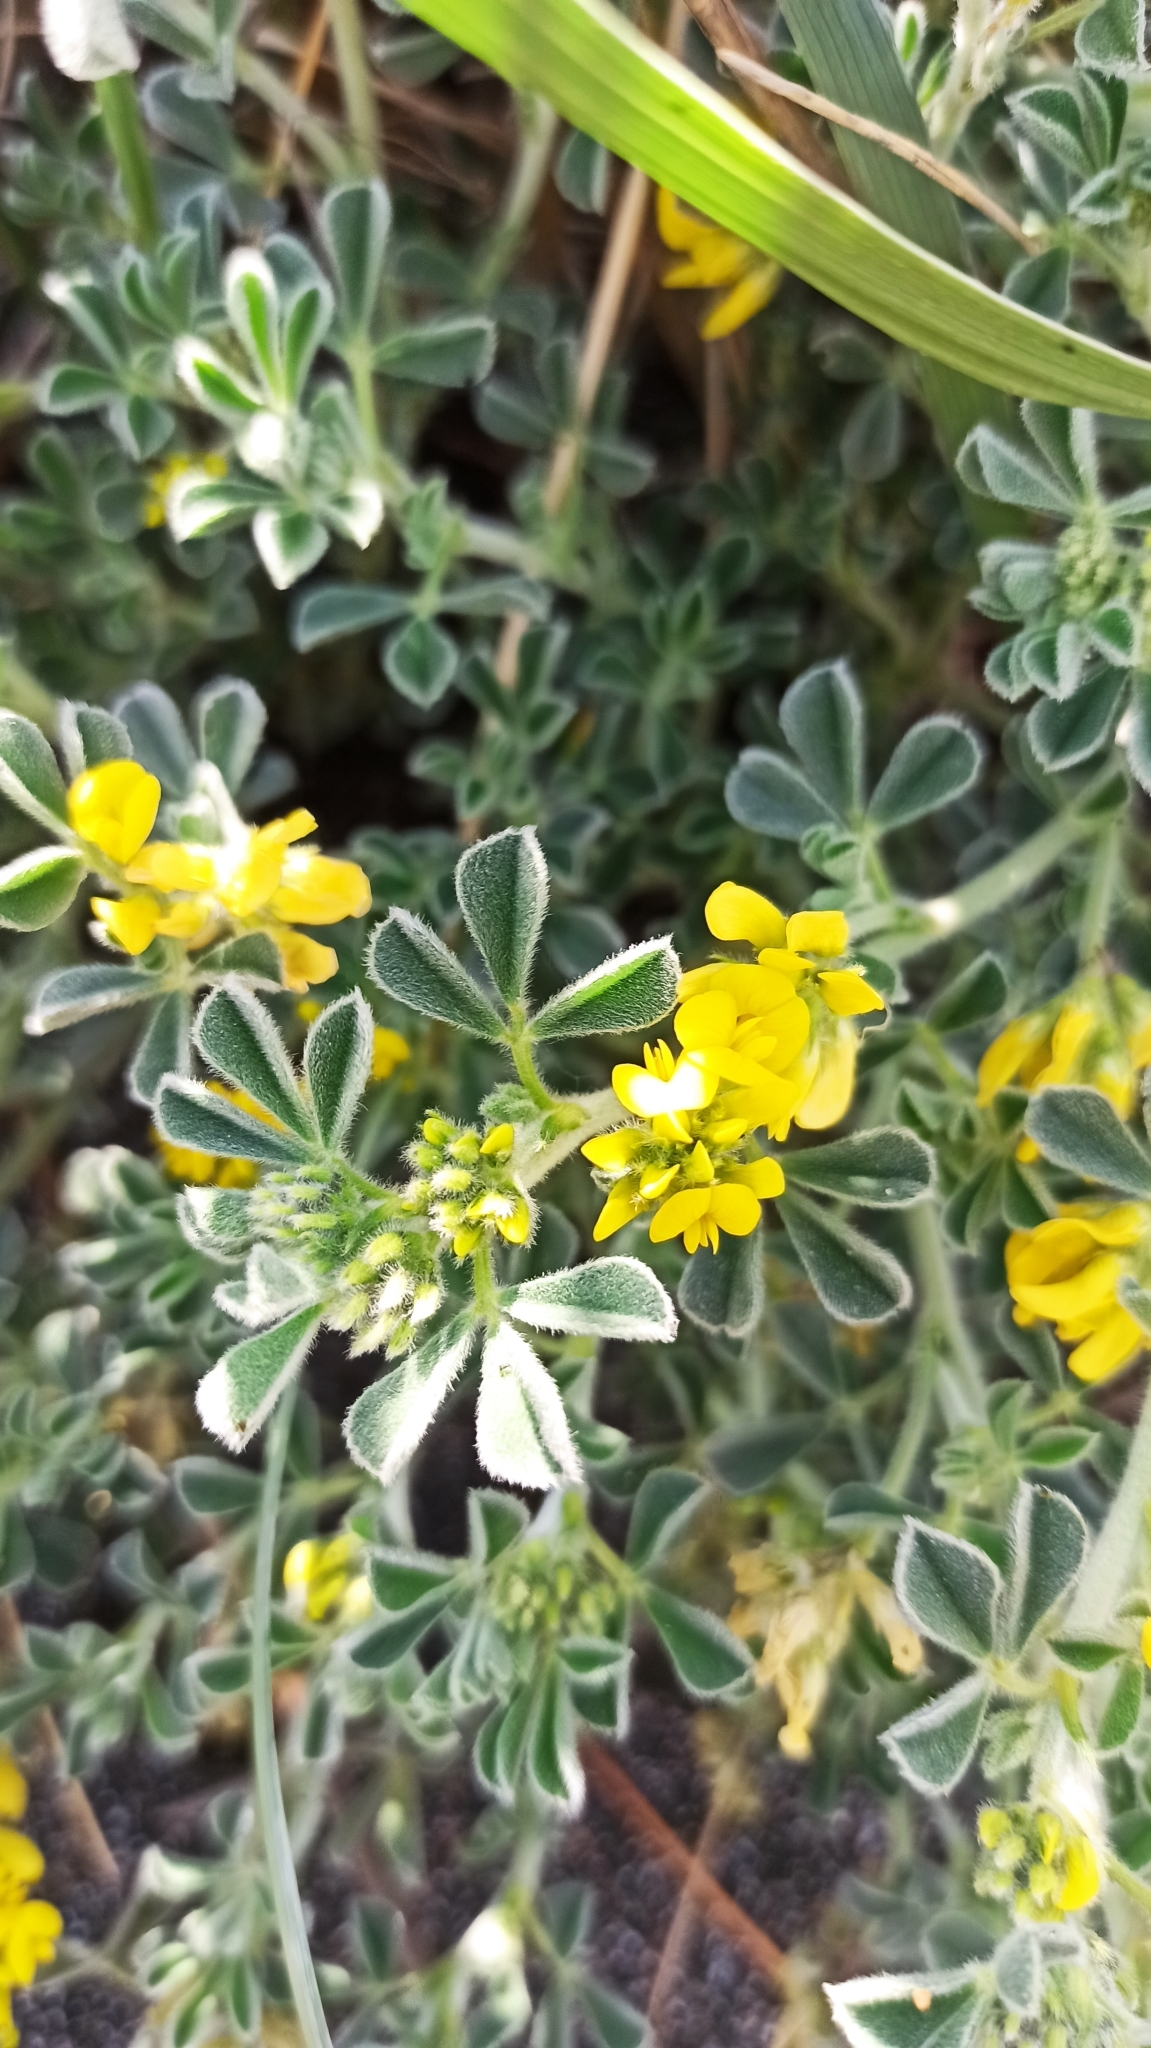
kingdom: Plantae
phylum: Tracheophyta
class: Magnoliopsida
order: Fabales
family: Fabaceae
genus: Medicago
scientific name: Medicago marina
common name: Sea medick
